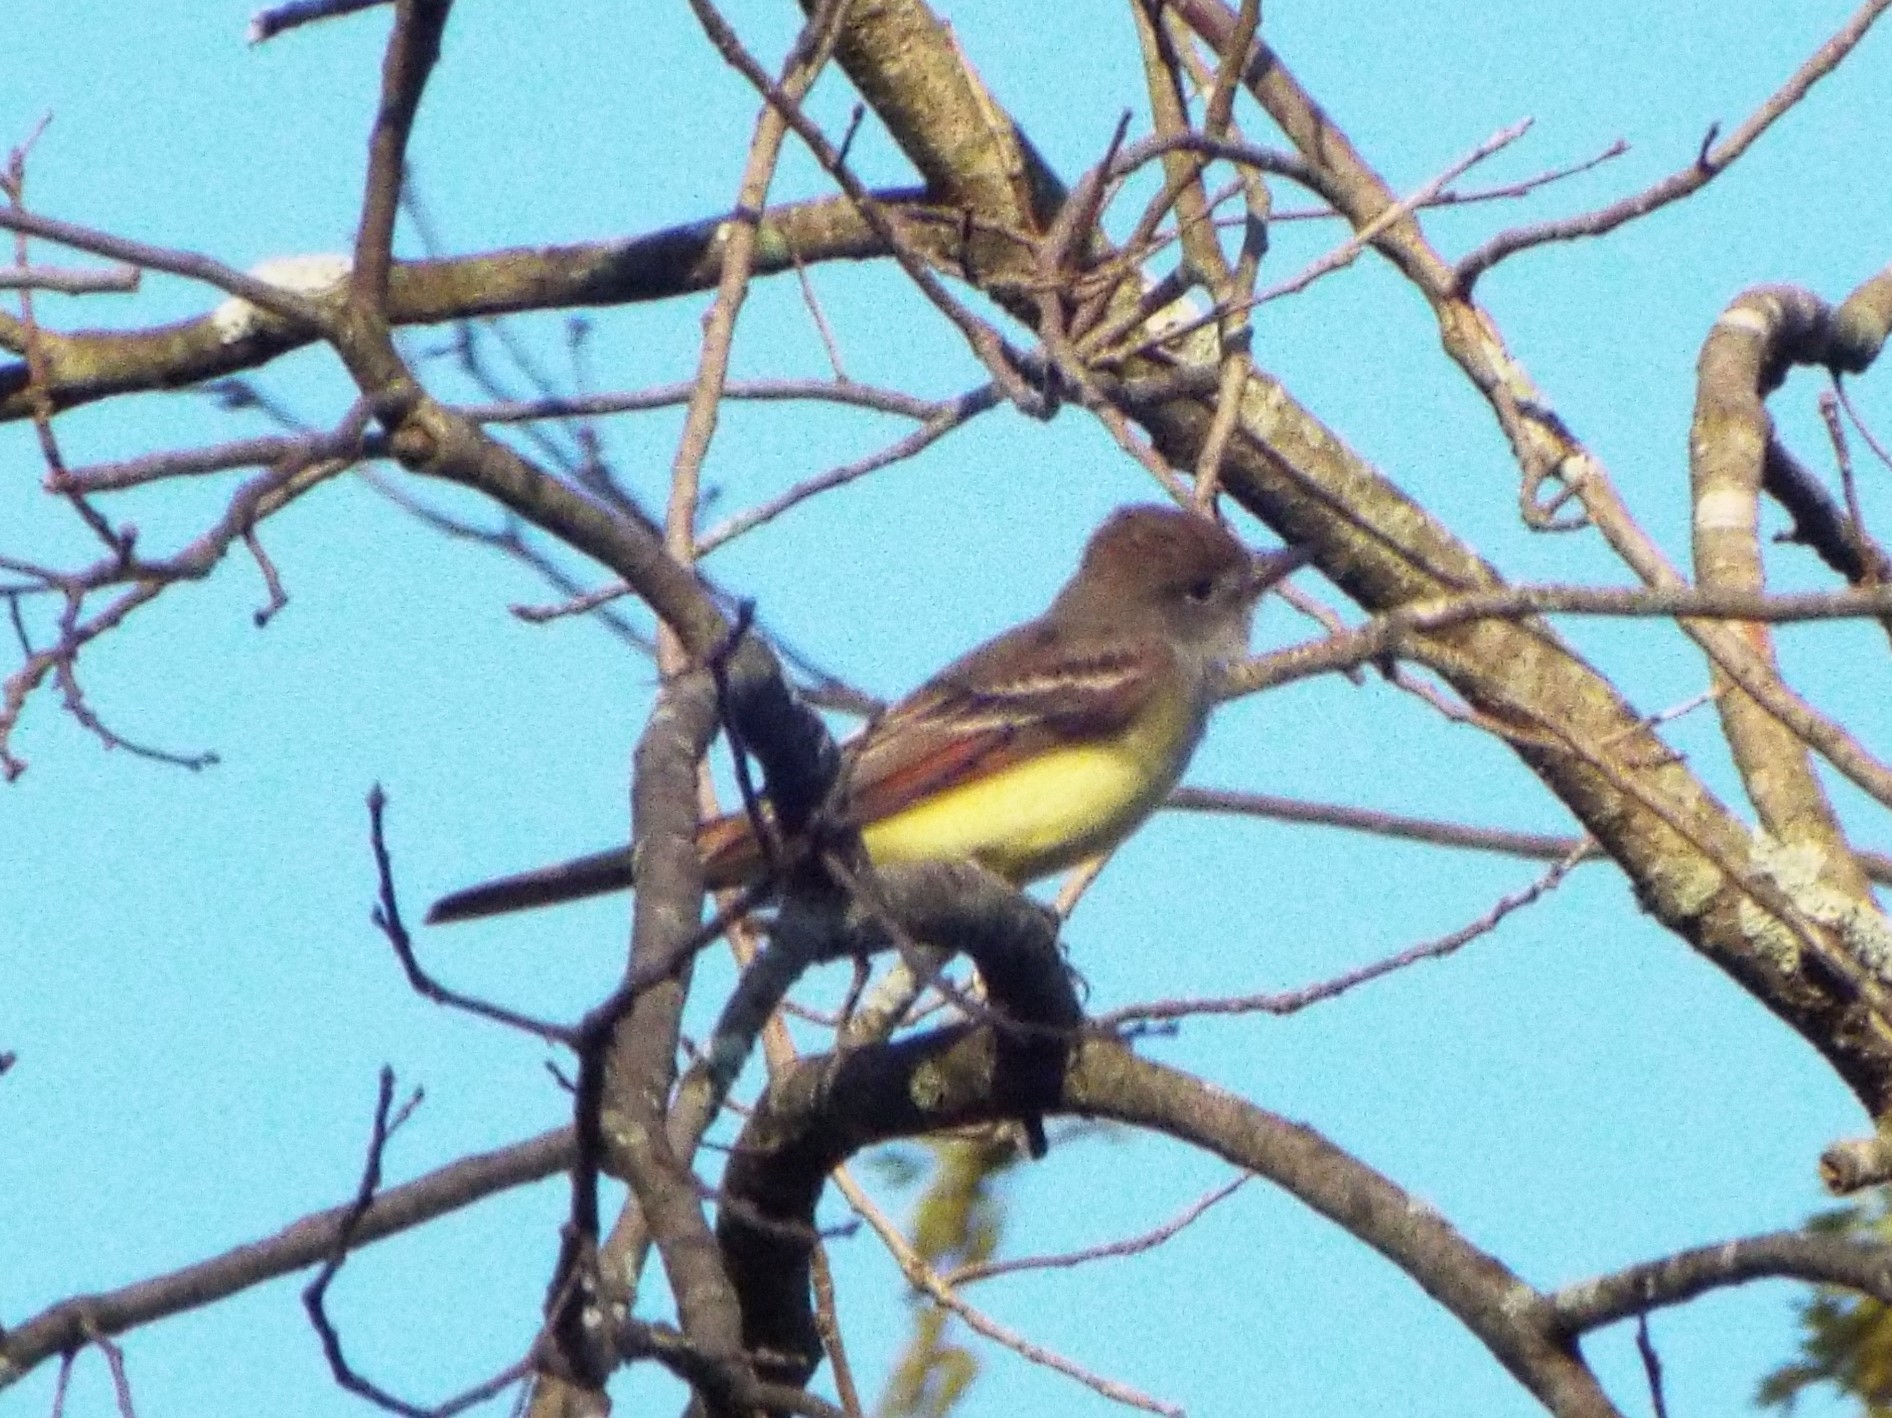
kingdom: Animalia
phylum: Chordata
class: Aves
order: Passeriformes
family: Tyrannidae
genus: Myiarchus
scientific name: Myiarchus crinitus
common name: Great crested flycatcher
